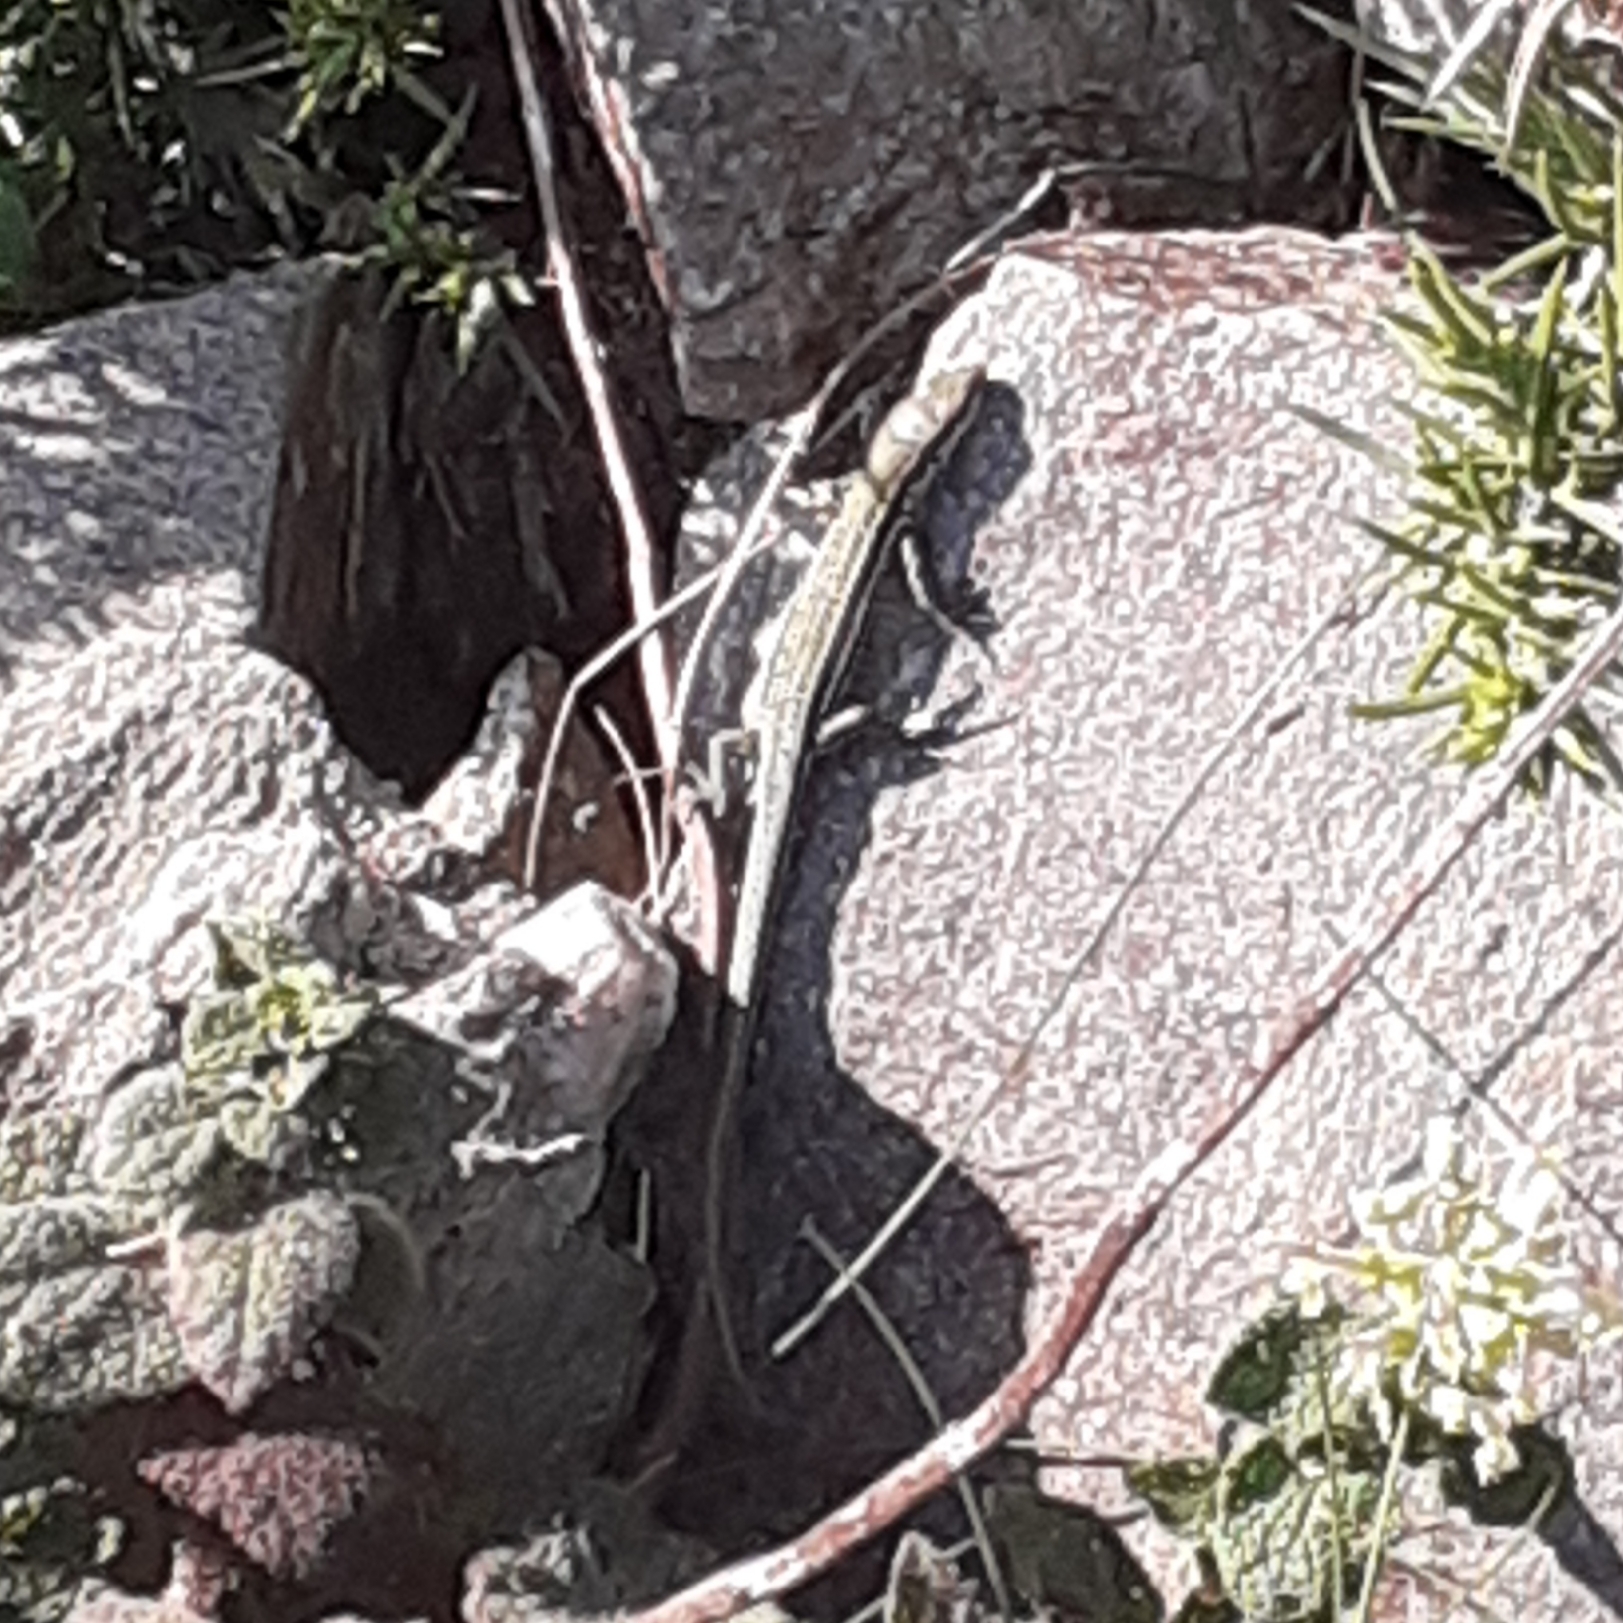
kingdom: Animalia
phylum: Chordata
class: Squamata
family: Lacertidae
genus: Podarcis
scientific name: Podarcis muralis
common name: Common wall lizard
